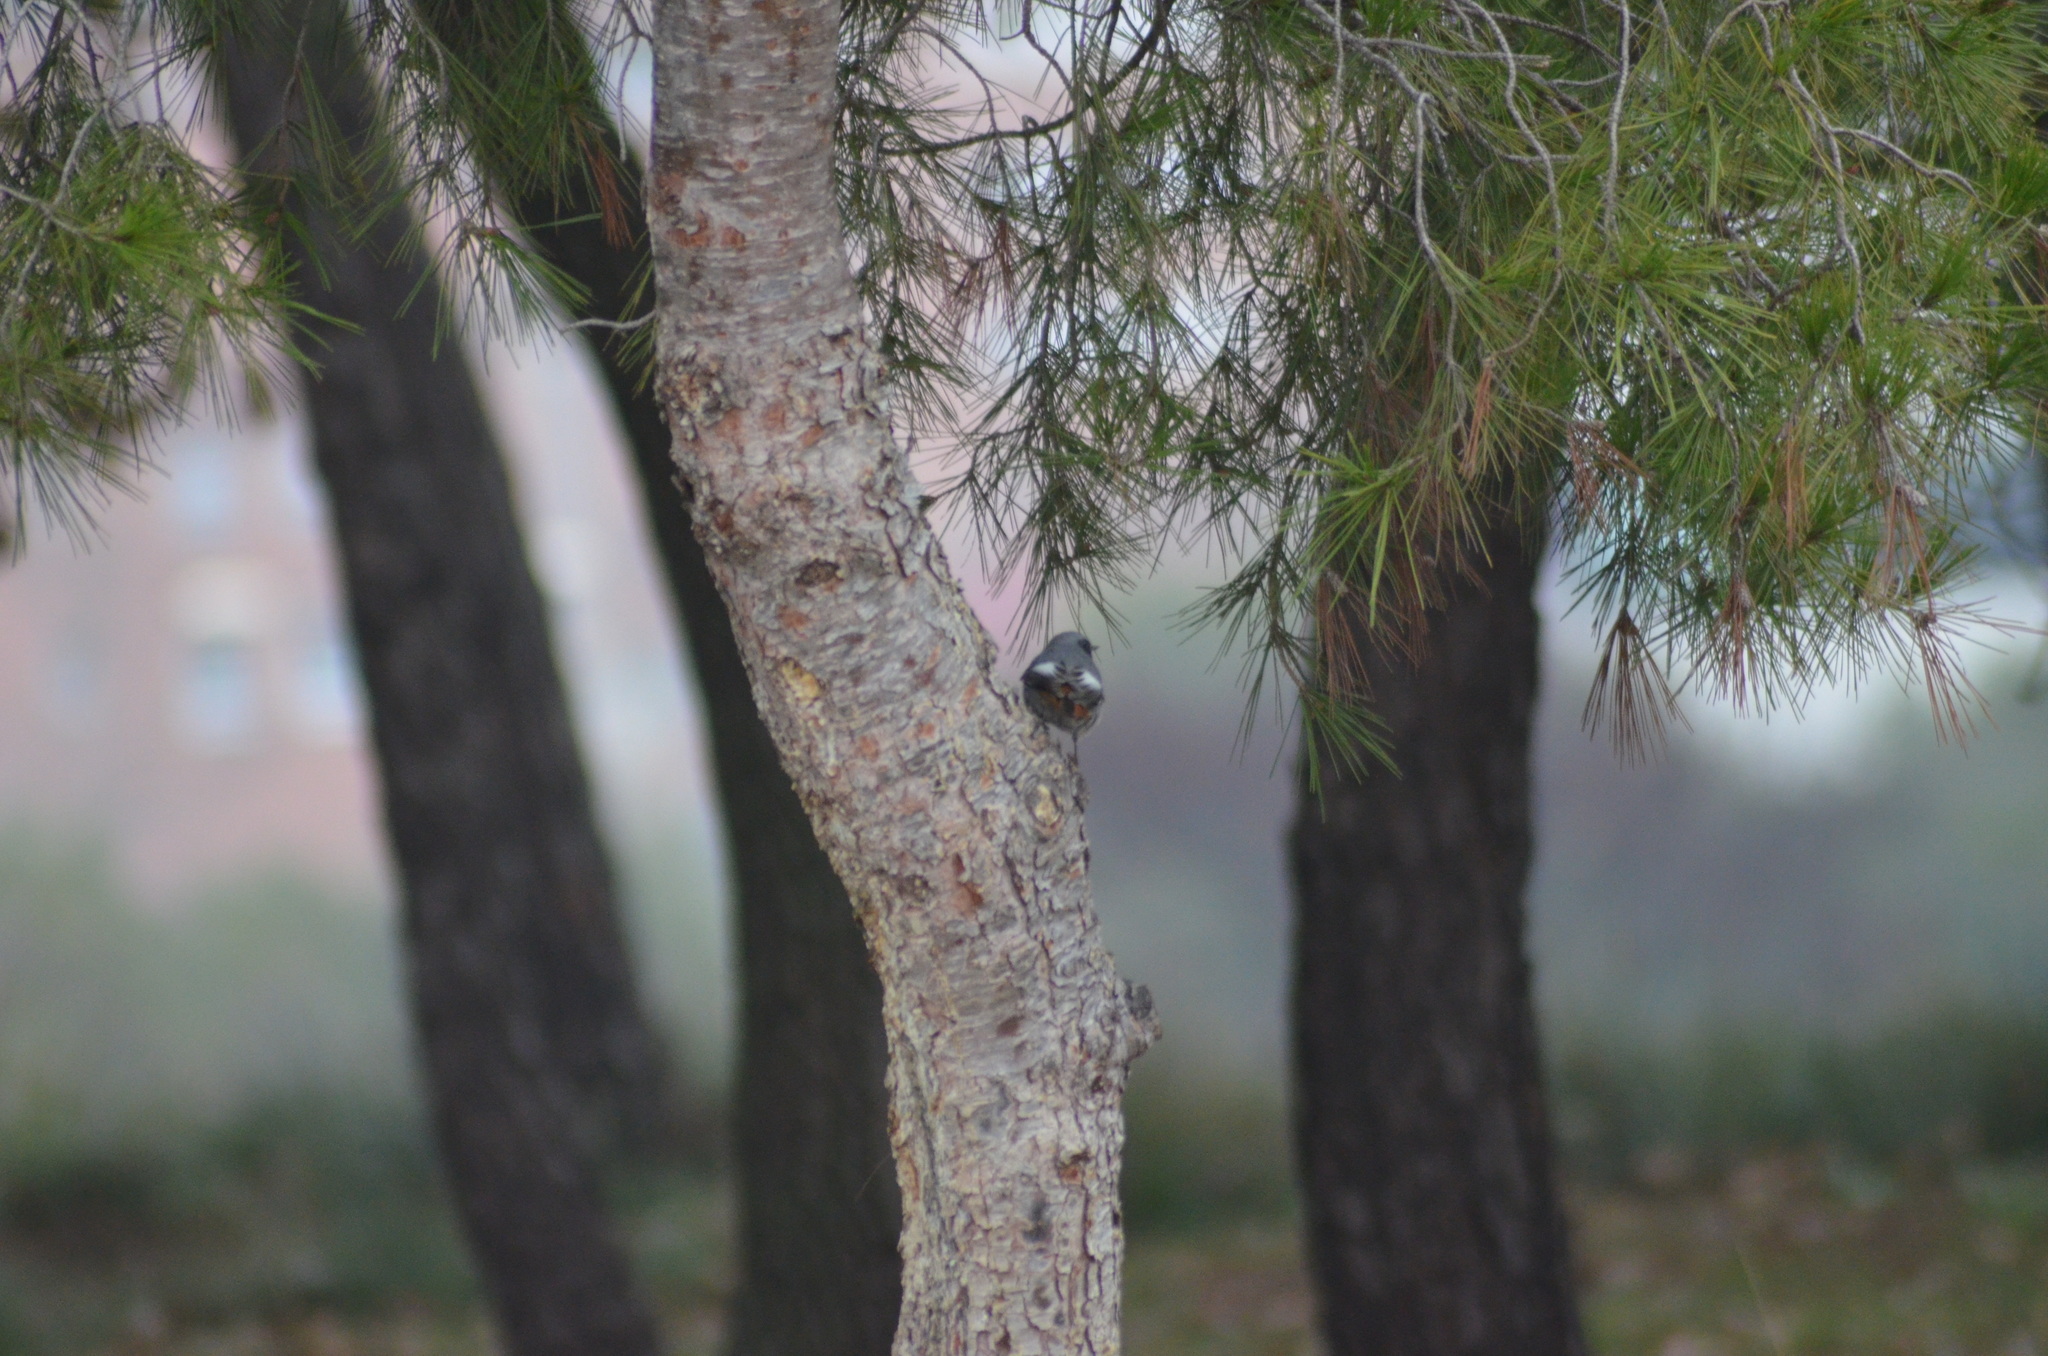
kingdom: Animalia
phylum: Chordata
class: Aves
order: Passeriformes
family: Muscicapidae
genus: Phoenicurus
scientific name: Phoenicurus ochruros
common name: Black redstart
